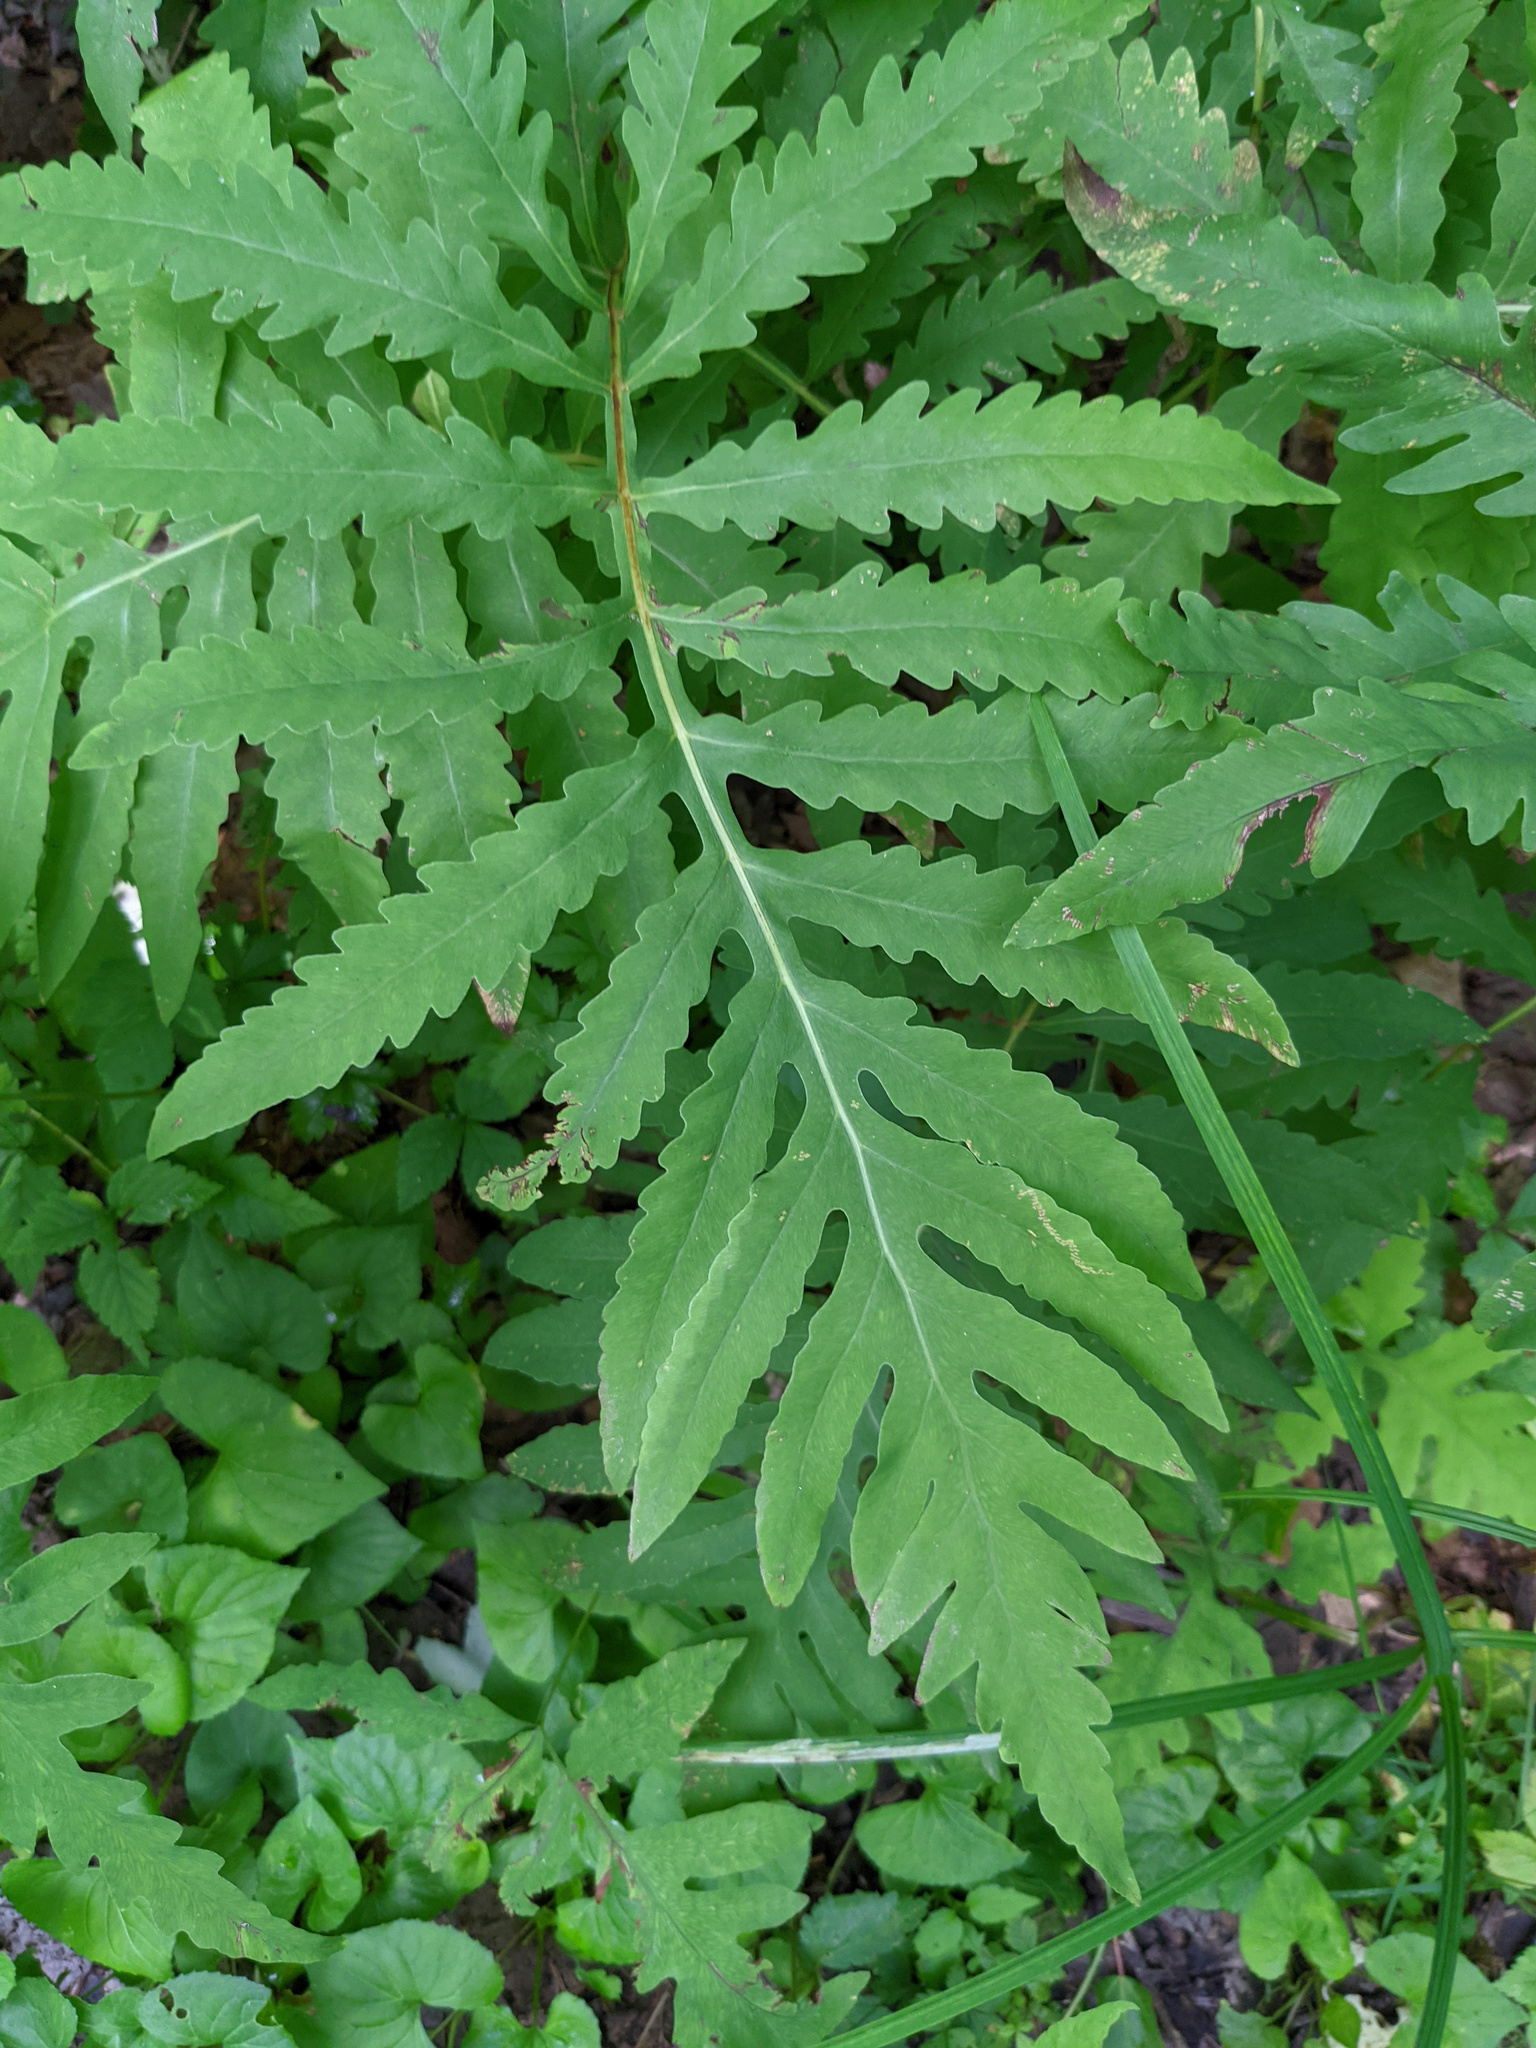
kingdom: Plantae
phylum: Tracheophyta
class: Polypodiopsida
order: Polypodiales
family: Onocleaceae
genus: Onoclea
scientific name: Onoclea sensibilis
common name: Sensitive fern
